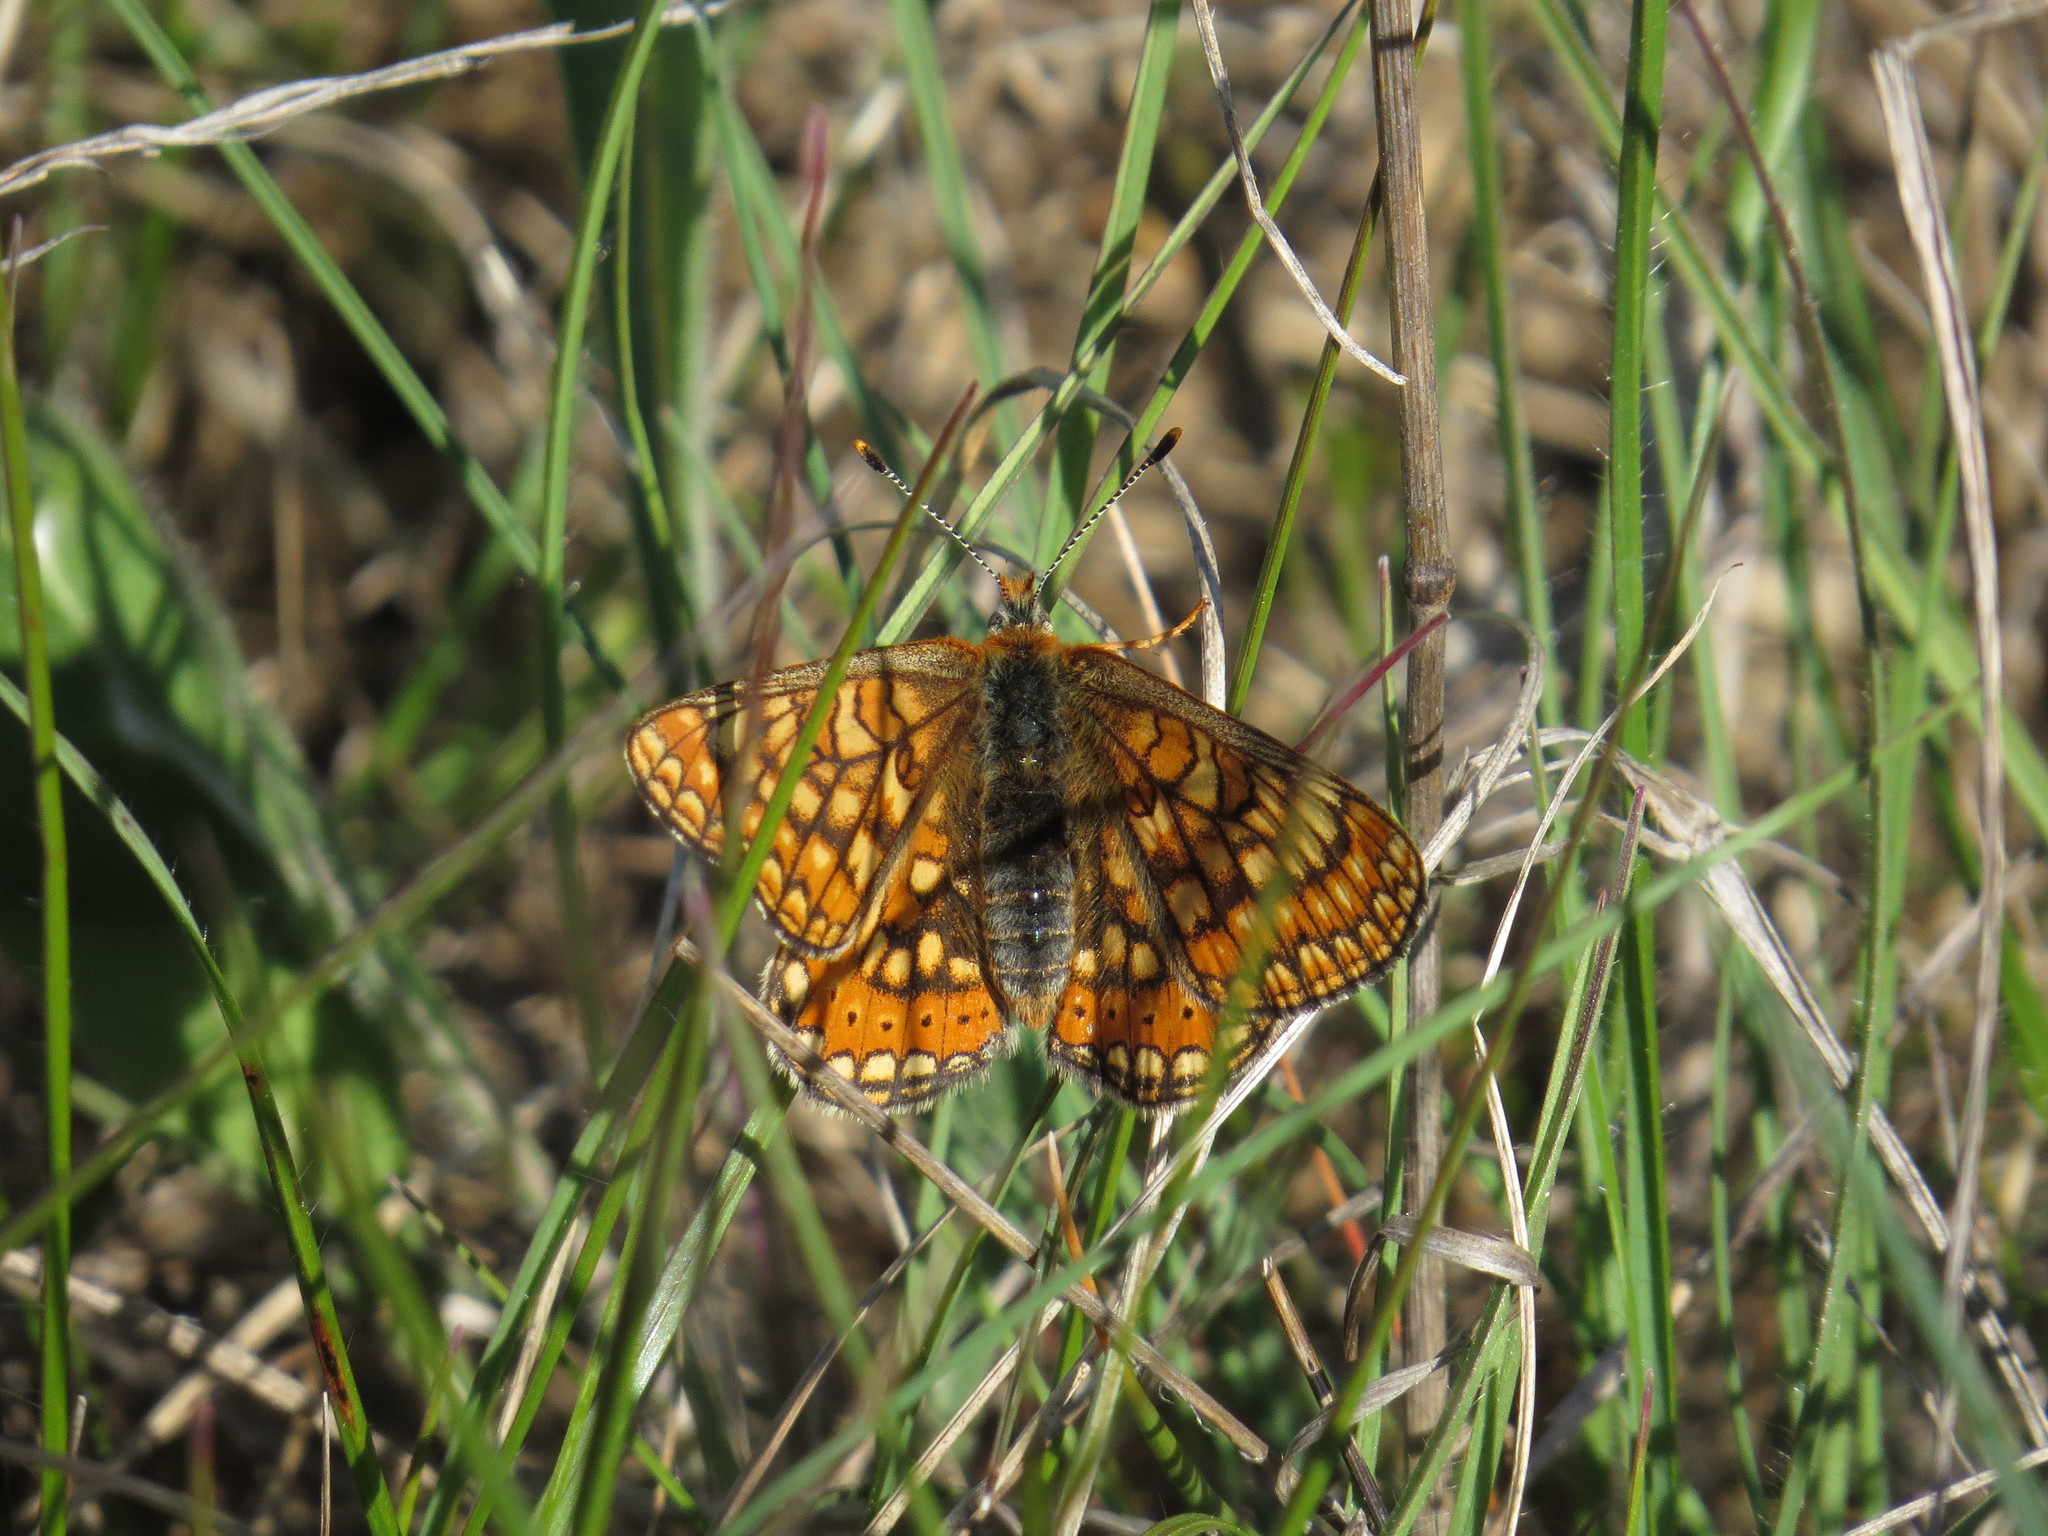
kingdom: Animalia
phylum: Arthropoda
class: Insecta
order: Lepidoptera
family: Nymphalidae
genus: Euphydryas
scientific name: Euphydryas aurinia
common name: Marsh fritillary
